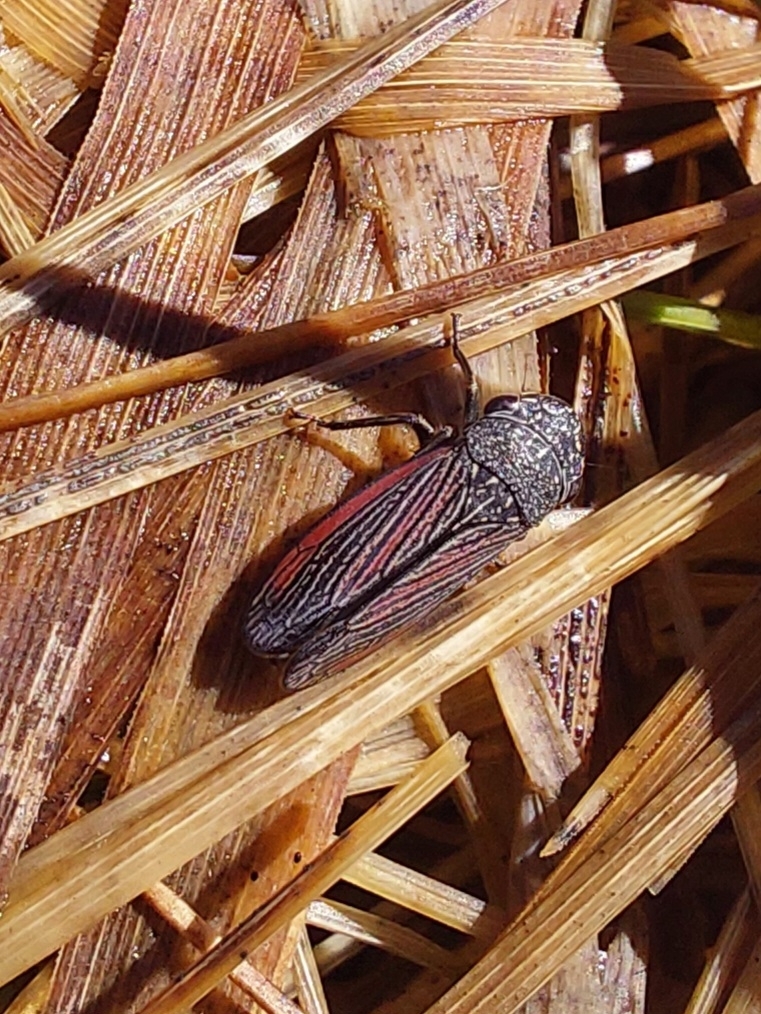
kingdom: Animalia
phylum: Arthropoda
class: Insecta
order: Hemiptera
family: Cicadellidae
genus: Cuerna
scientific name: Cuerna striata
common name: Striped leafhopper
